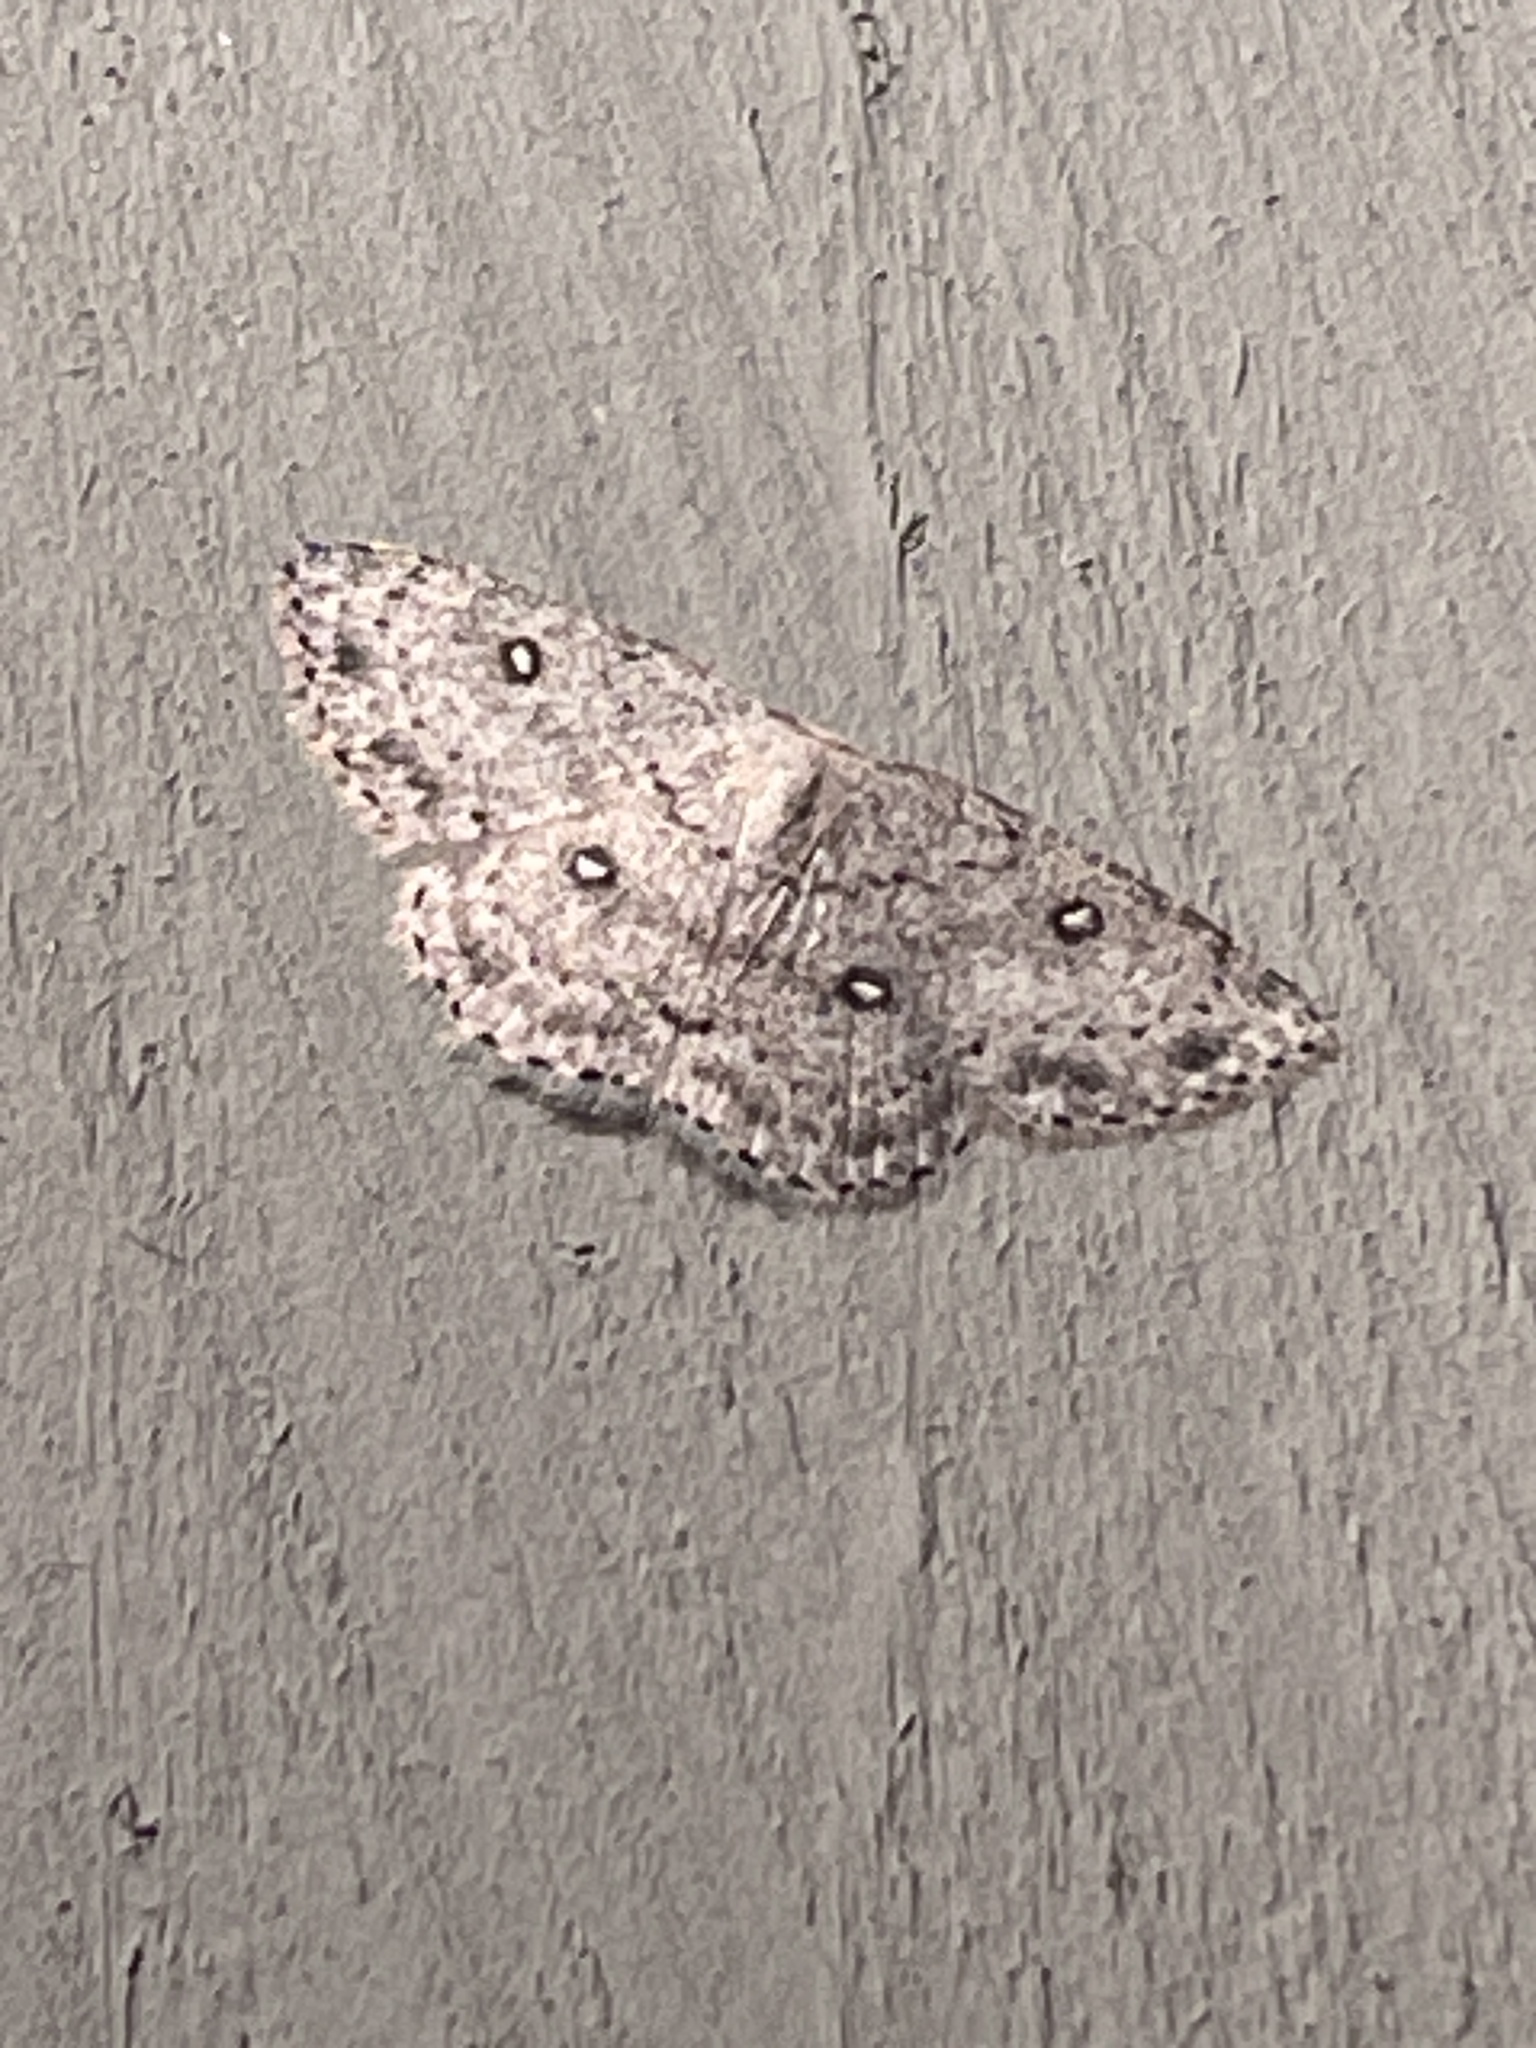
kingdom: Animalia
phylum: Arthropoda
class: Insecta
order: Lepidoptera
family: Geometridae
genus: Cyclophora
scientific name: Cyclophora pendulinaria
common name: Sweet fern geometer
